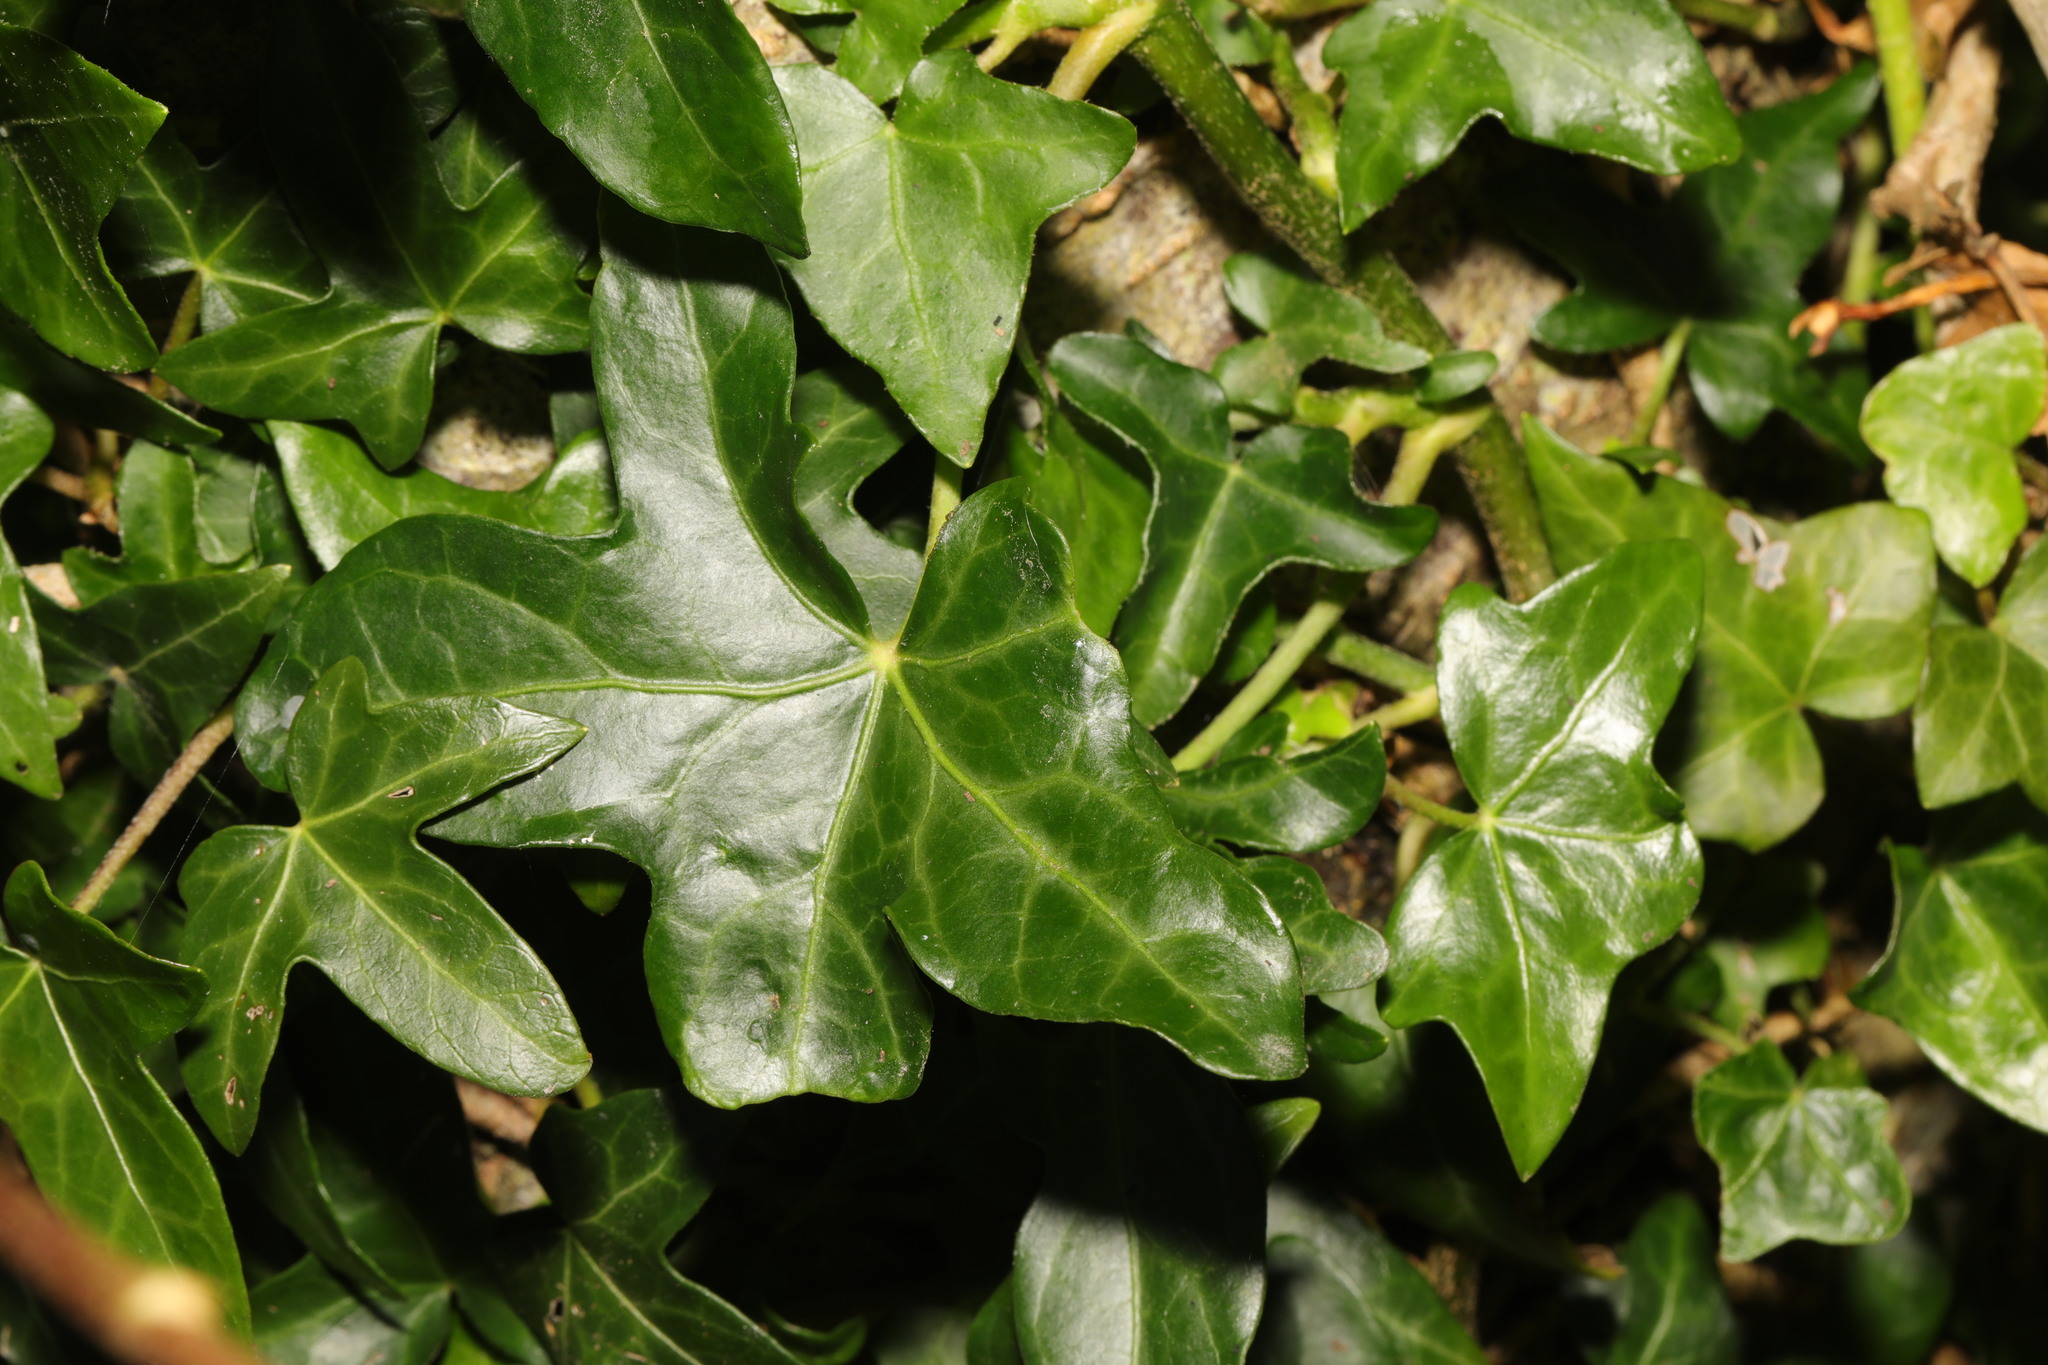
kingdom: Plantae
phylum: Tracheophyta
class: Magnoliopsida
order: Apiales
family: Araliaceae
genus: Hedera
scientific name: Hedera helix
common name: Ivy
